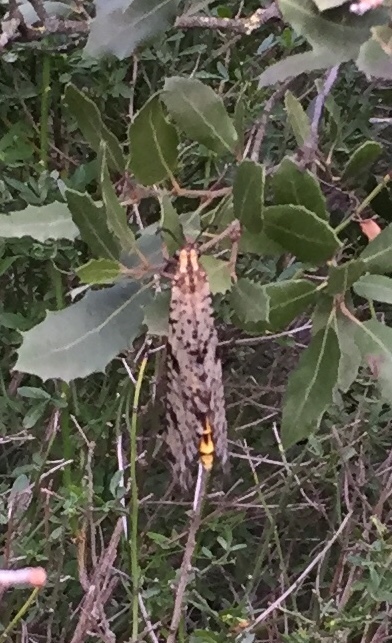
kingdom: Animalia
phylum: Arthropoda
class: Insecta
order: Neuroptera
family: Myrmeleontidae
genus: Palpares
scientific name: Palpares libelluloides
